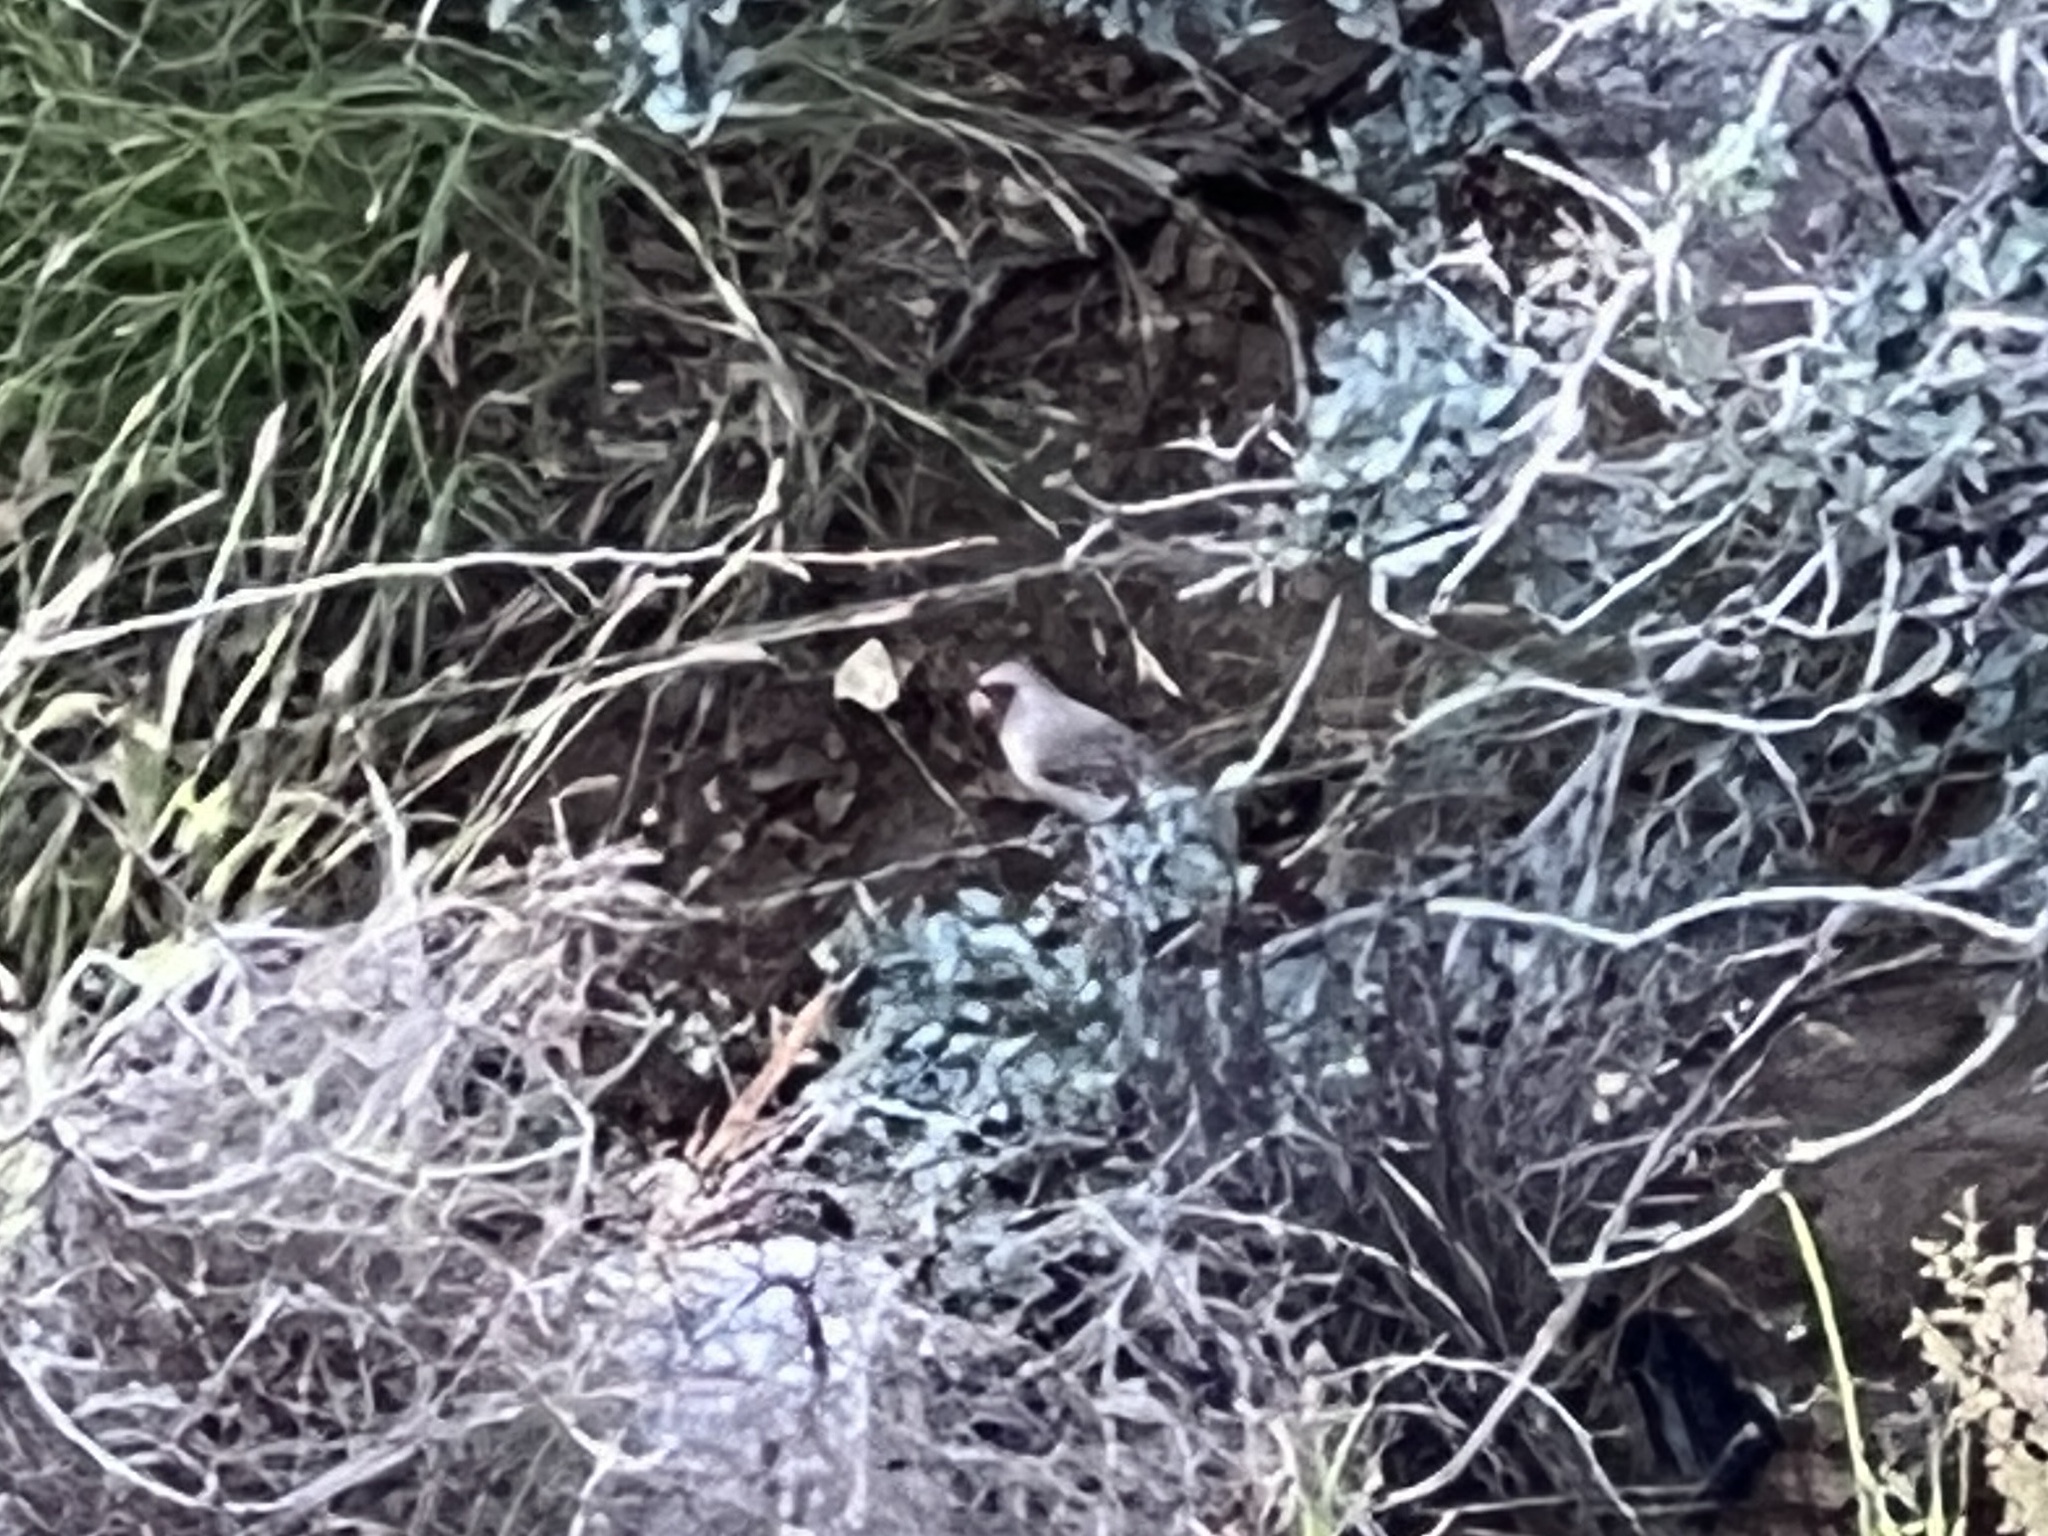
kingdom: Animalia
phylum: Chordata
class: Aves
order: Passeriformes
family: Cardinalidae
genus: Cardinalis
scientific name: Cardinalis sinuatus
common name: Pyrrhuloxia
